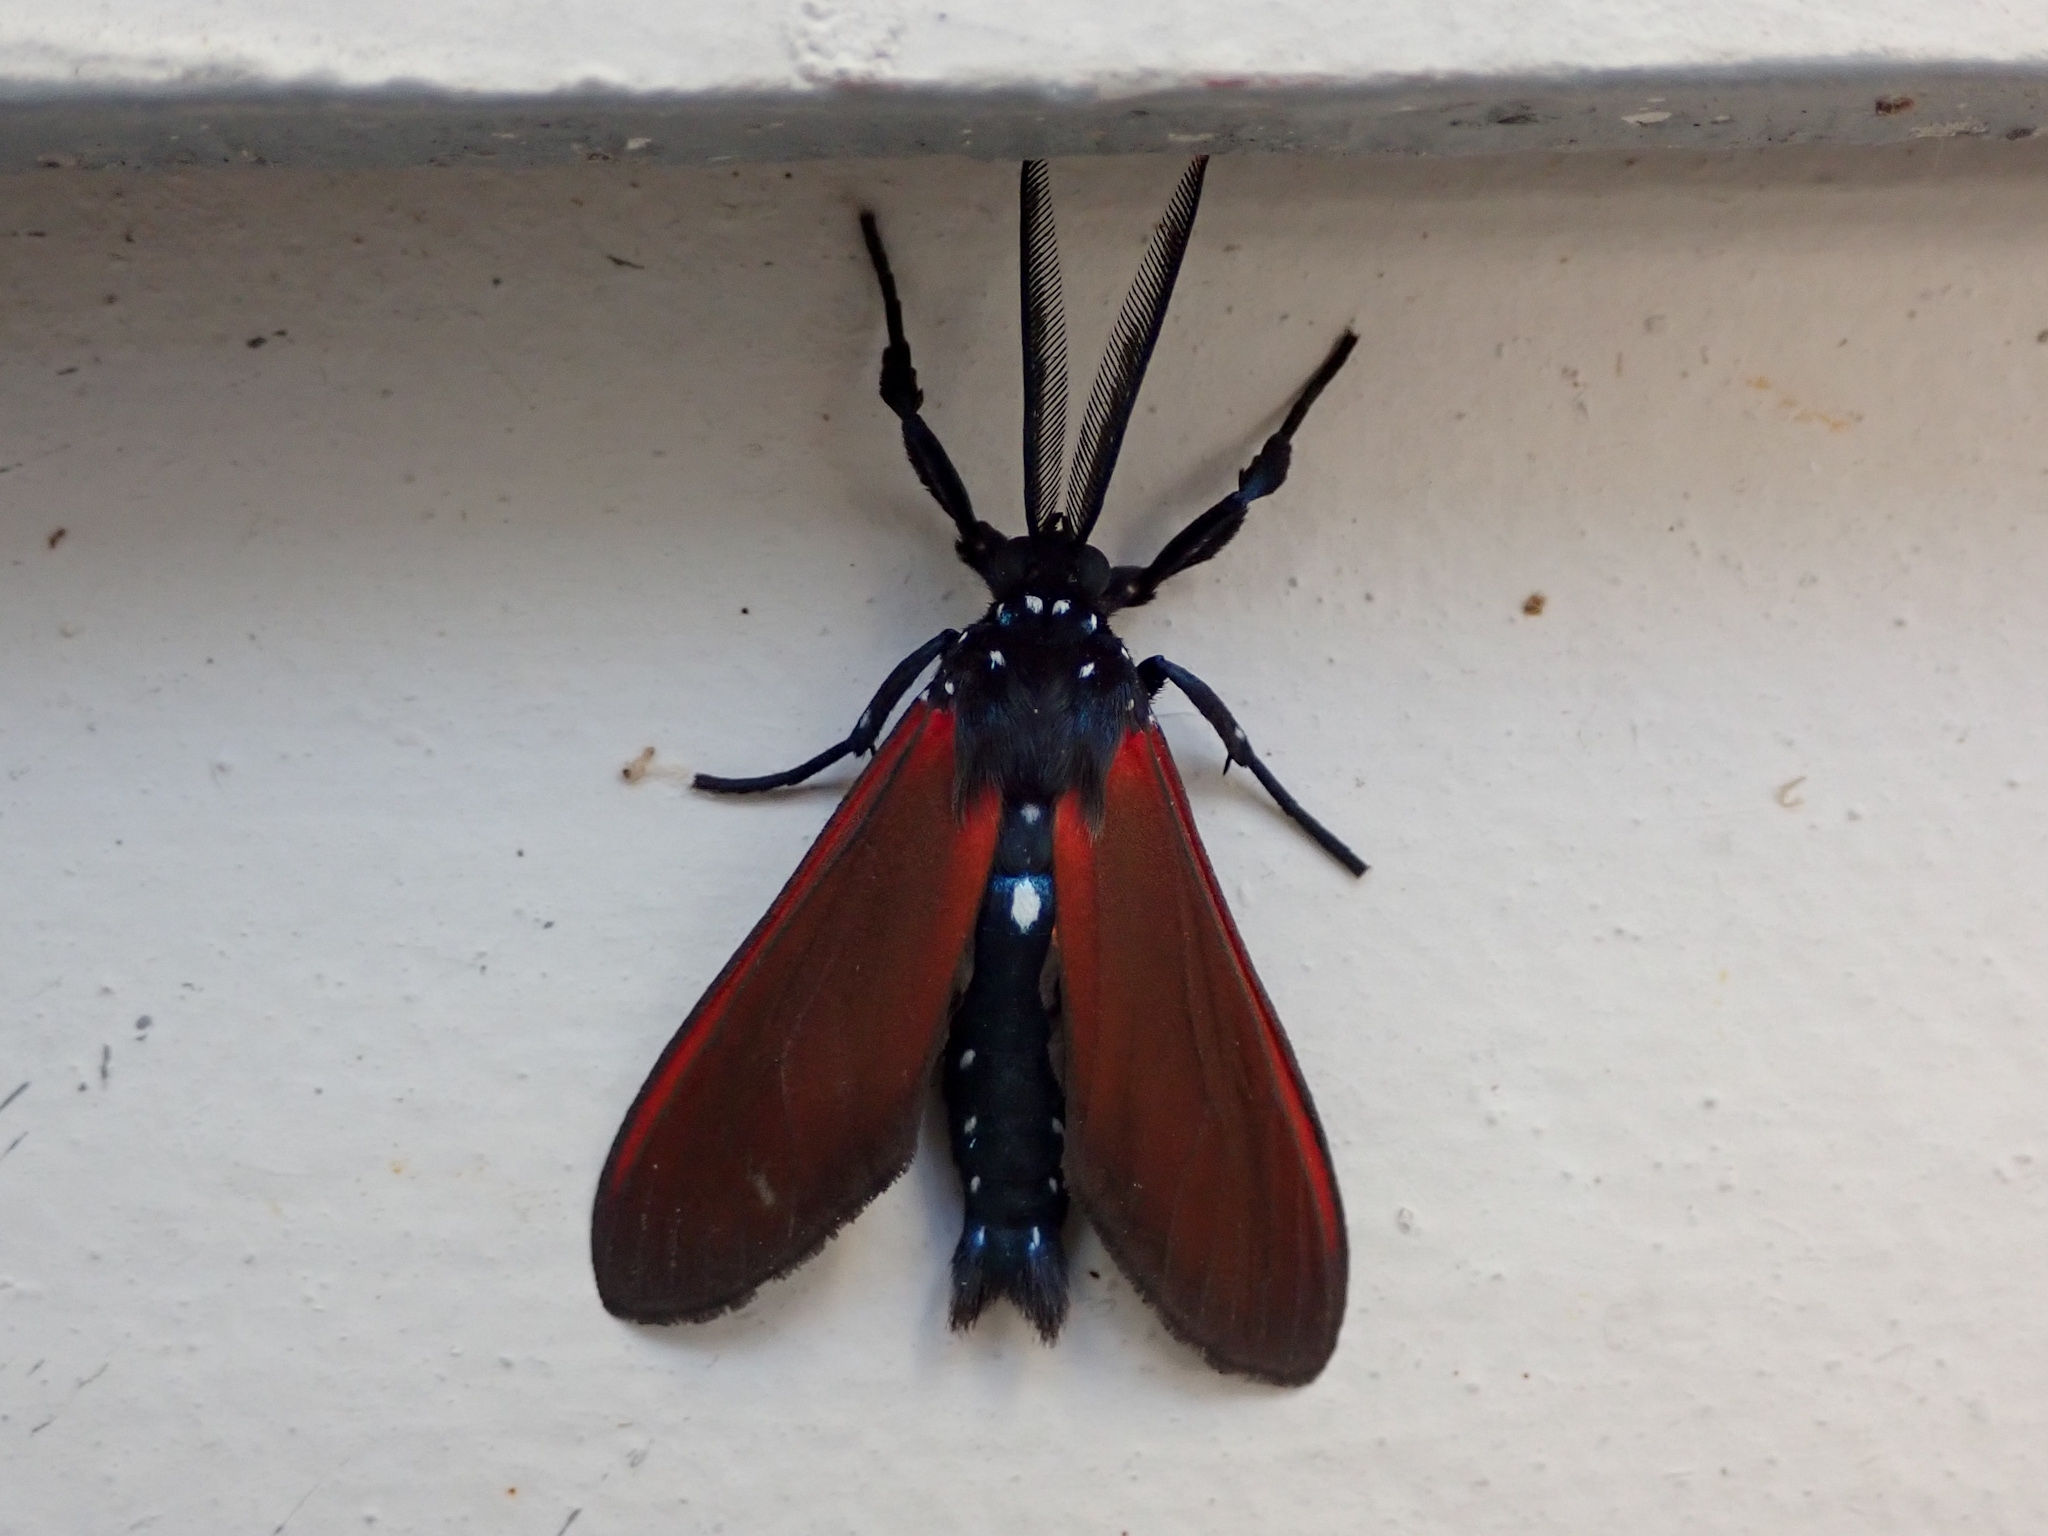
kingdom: Animalia
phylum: Arthropoda
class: Insecta
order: Lepidoptera
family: Erebidae
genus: Empyreuma
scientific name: Empyreuma pugione
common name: Spotted oleander caterpillar moth
